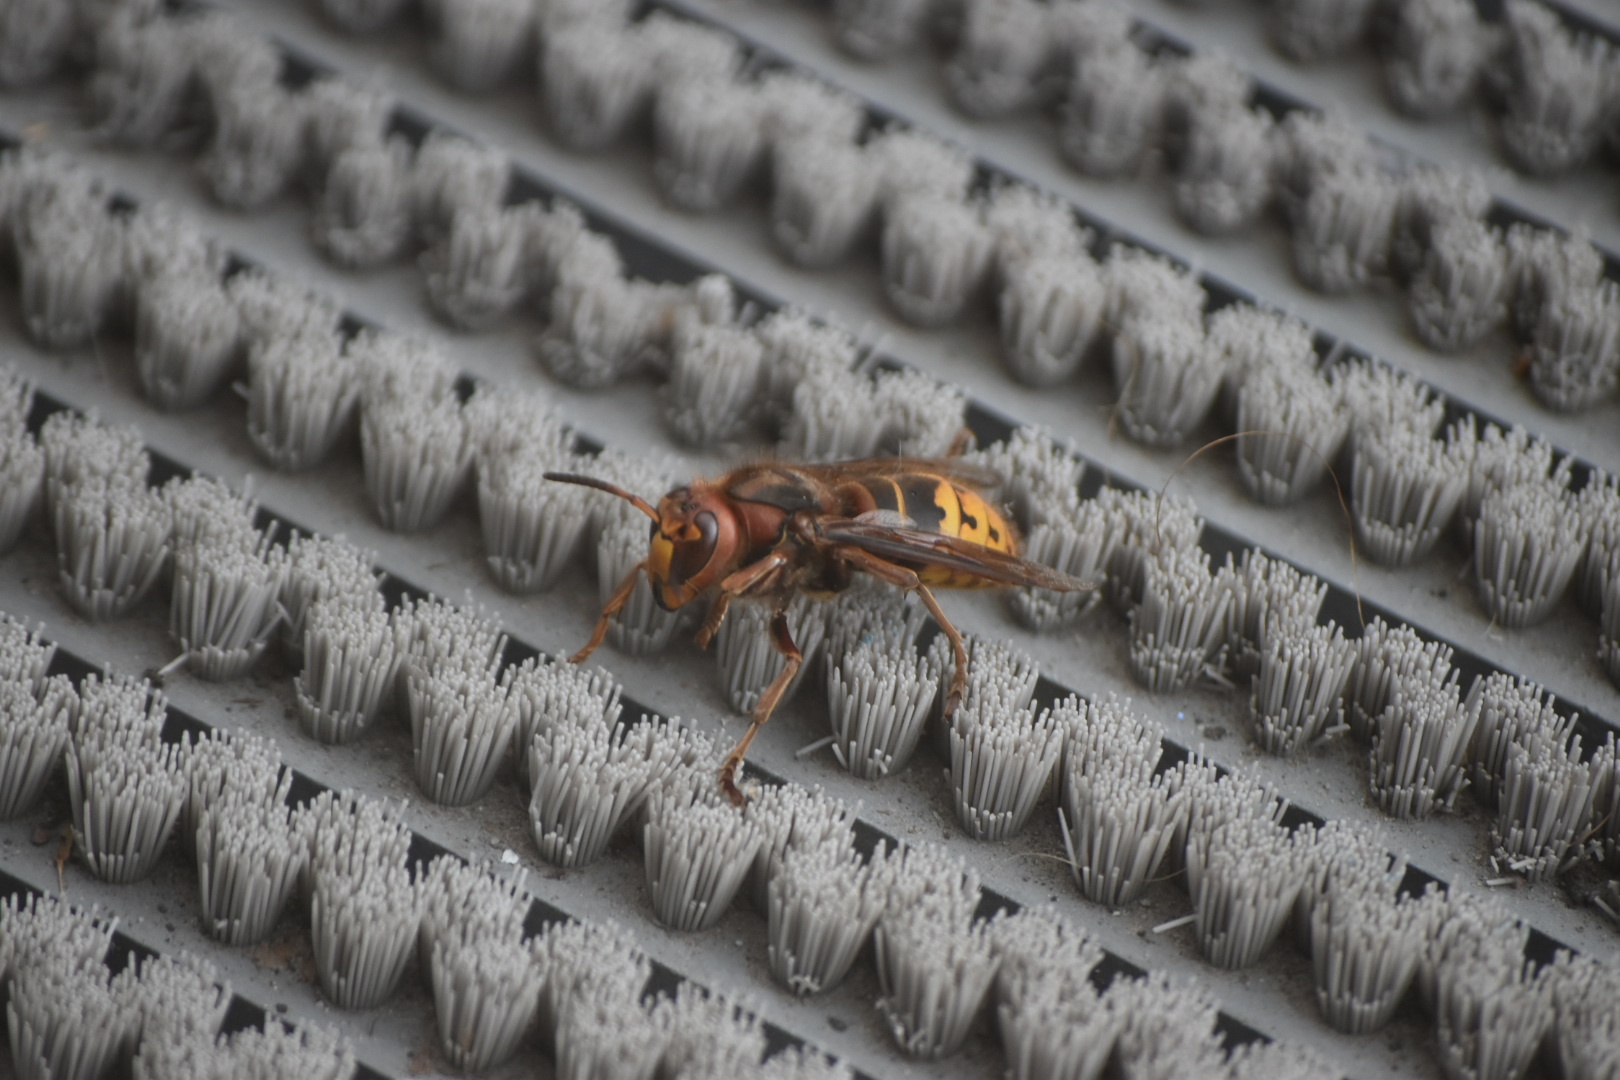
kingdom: Animalia
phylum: Arthropoda
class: Insecta
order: Hymenoptera
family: Vespidae
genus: Vespa
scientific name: Vespa crabro
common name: Hornet
